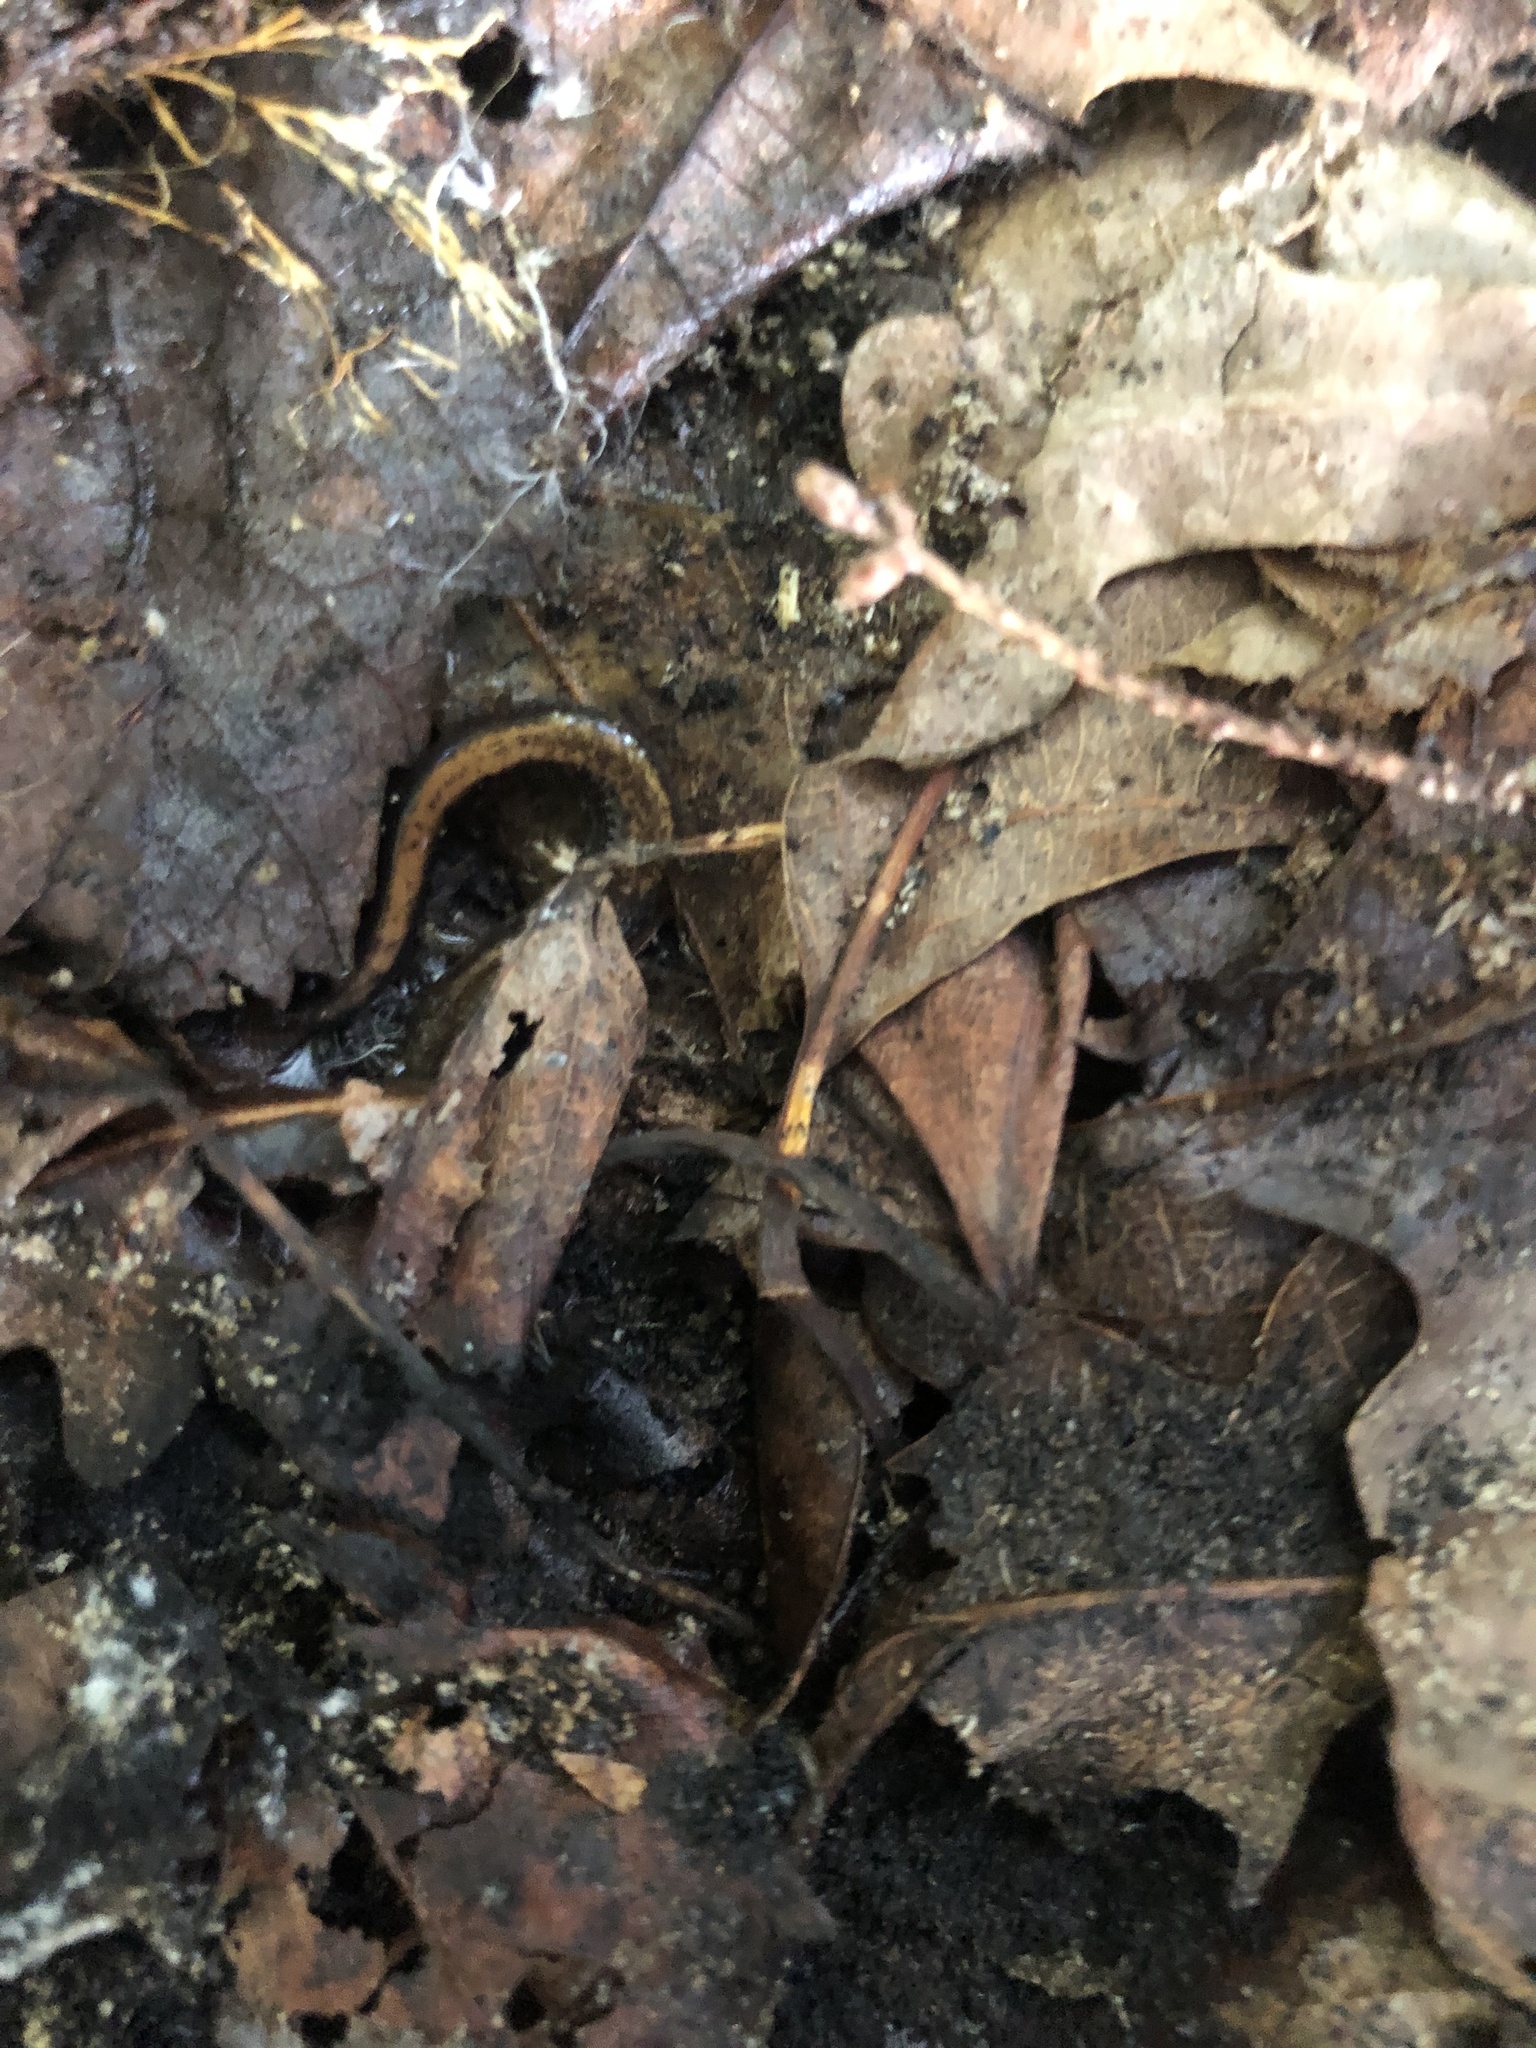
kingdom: Animalia
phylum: Chordata
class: Amphibia
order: Caudata
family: Plethodontidae
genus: Plethodon
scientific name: Plethodon cinereus
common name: Redback salamander
